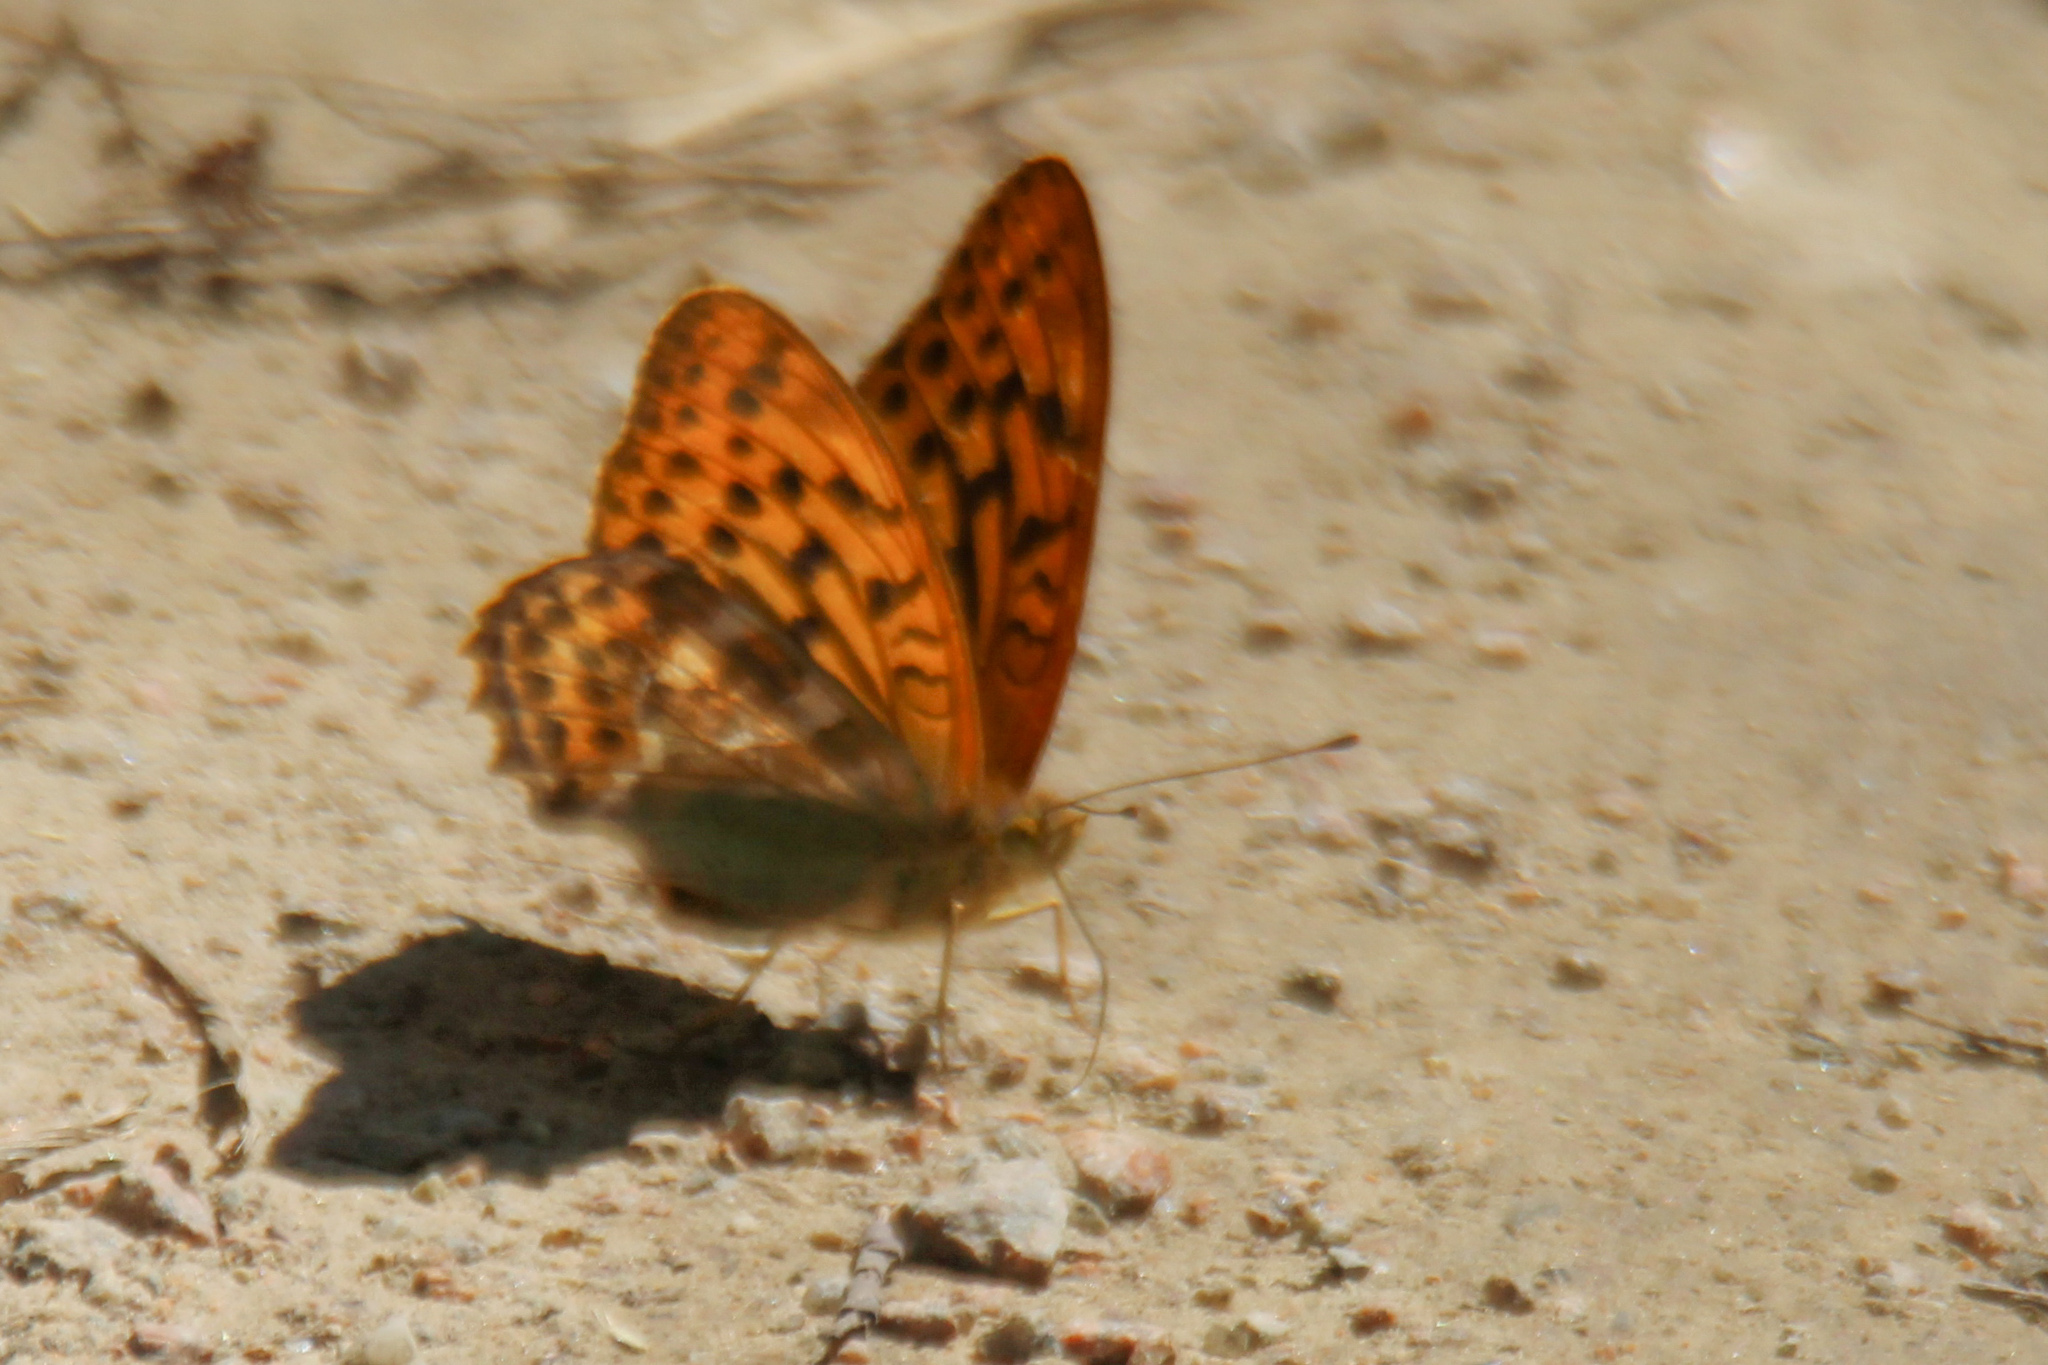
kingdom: Animalia
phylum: Arthropoda
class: Insecta
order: Lepidoptera
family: Nymphalidae
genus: Argynnis
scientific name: Argynnis paphia
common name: Silver-washed fritillary
